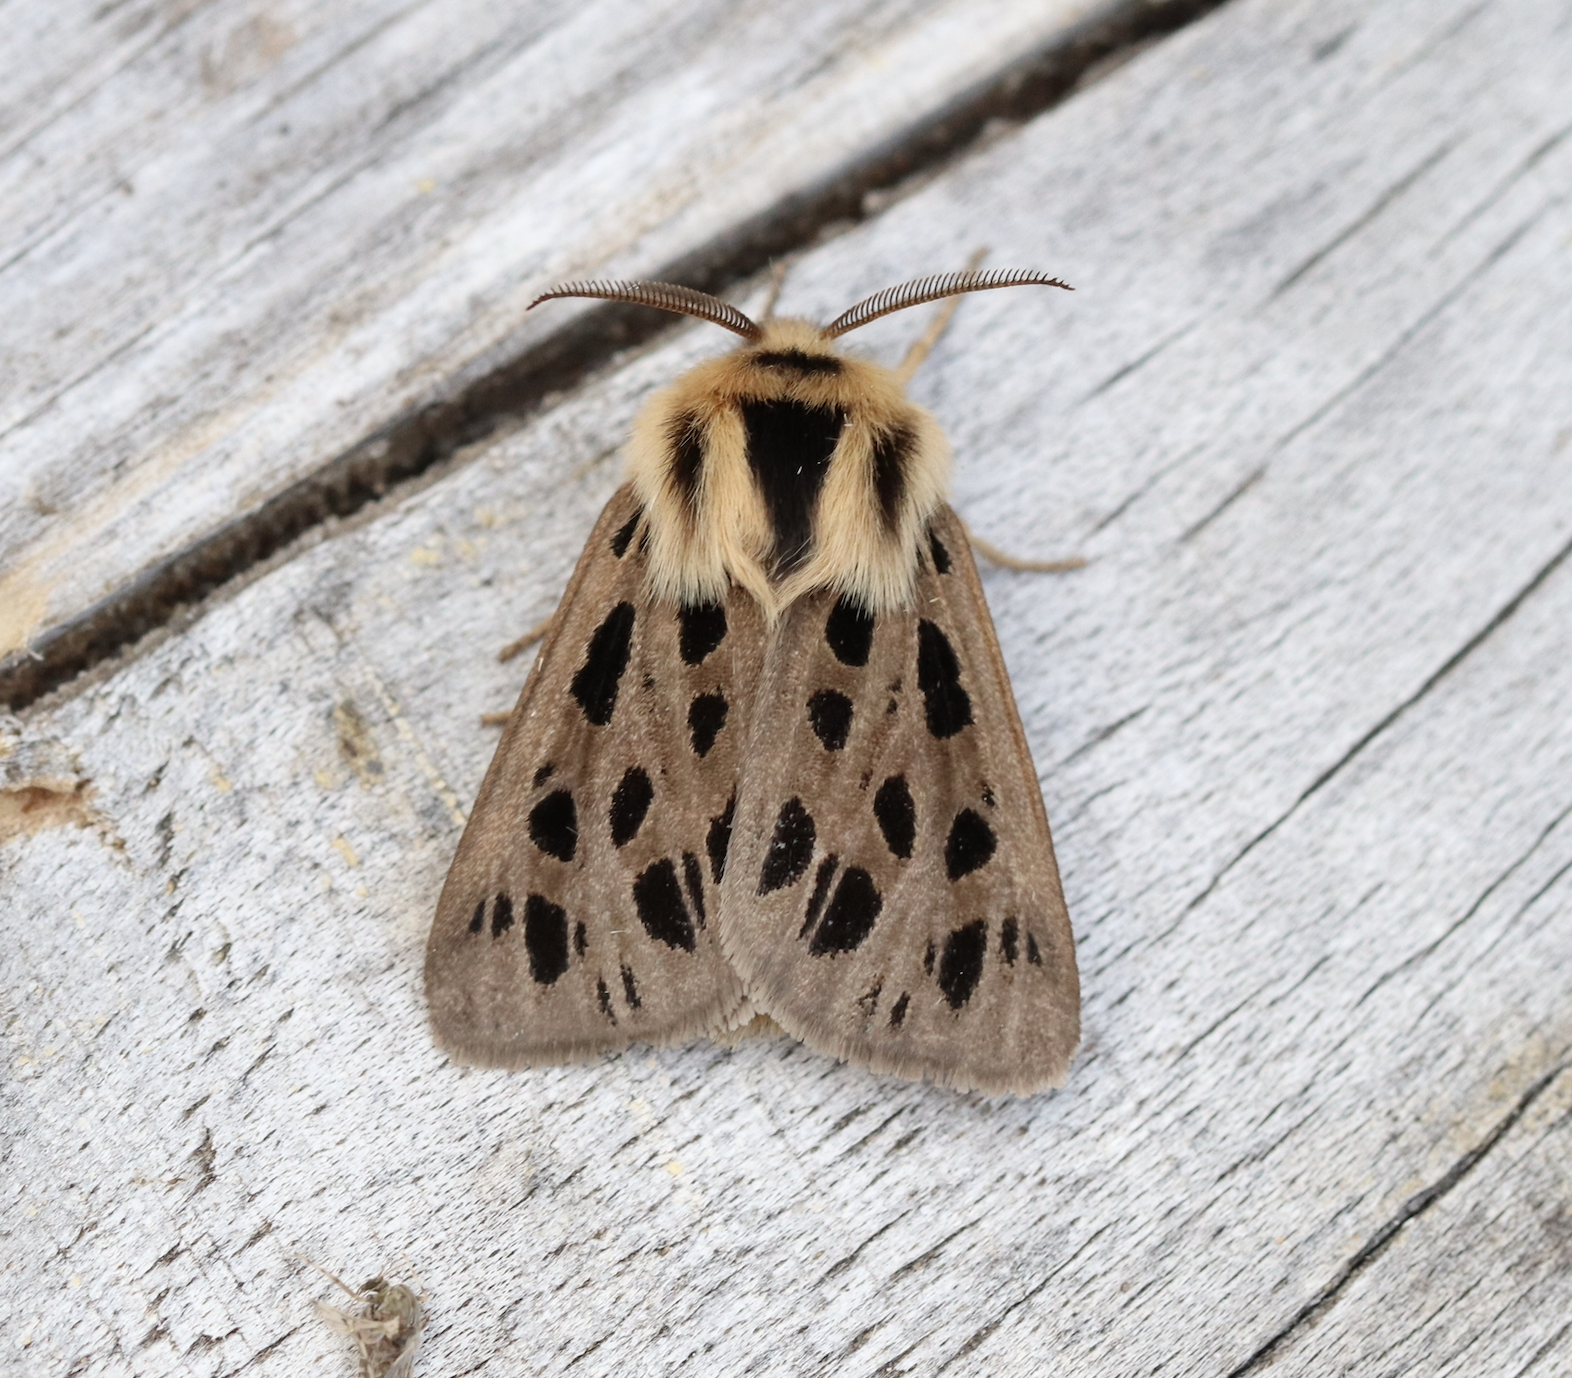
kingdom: Animalia
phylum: Arthropoda
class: Insecta
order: Lepidoptera
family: Erebidae
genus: Chelis
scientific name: Chelis simplonica
